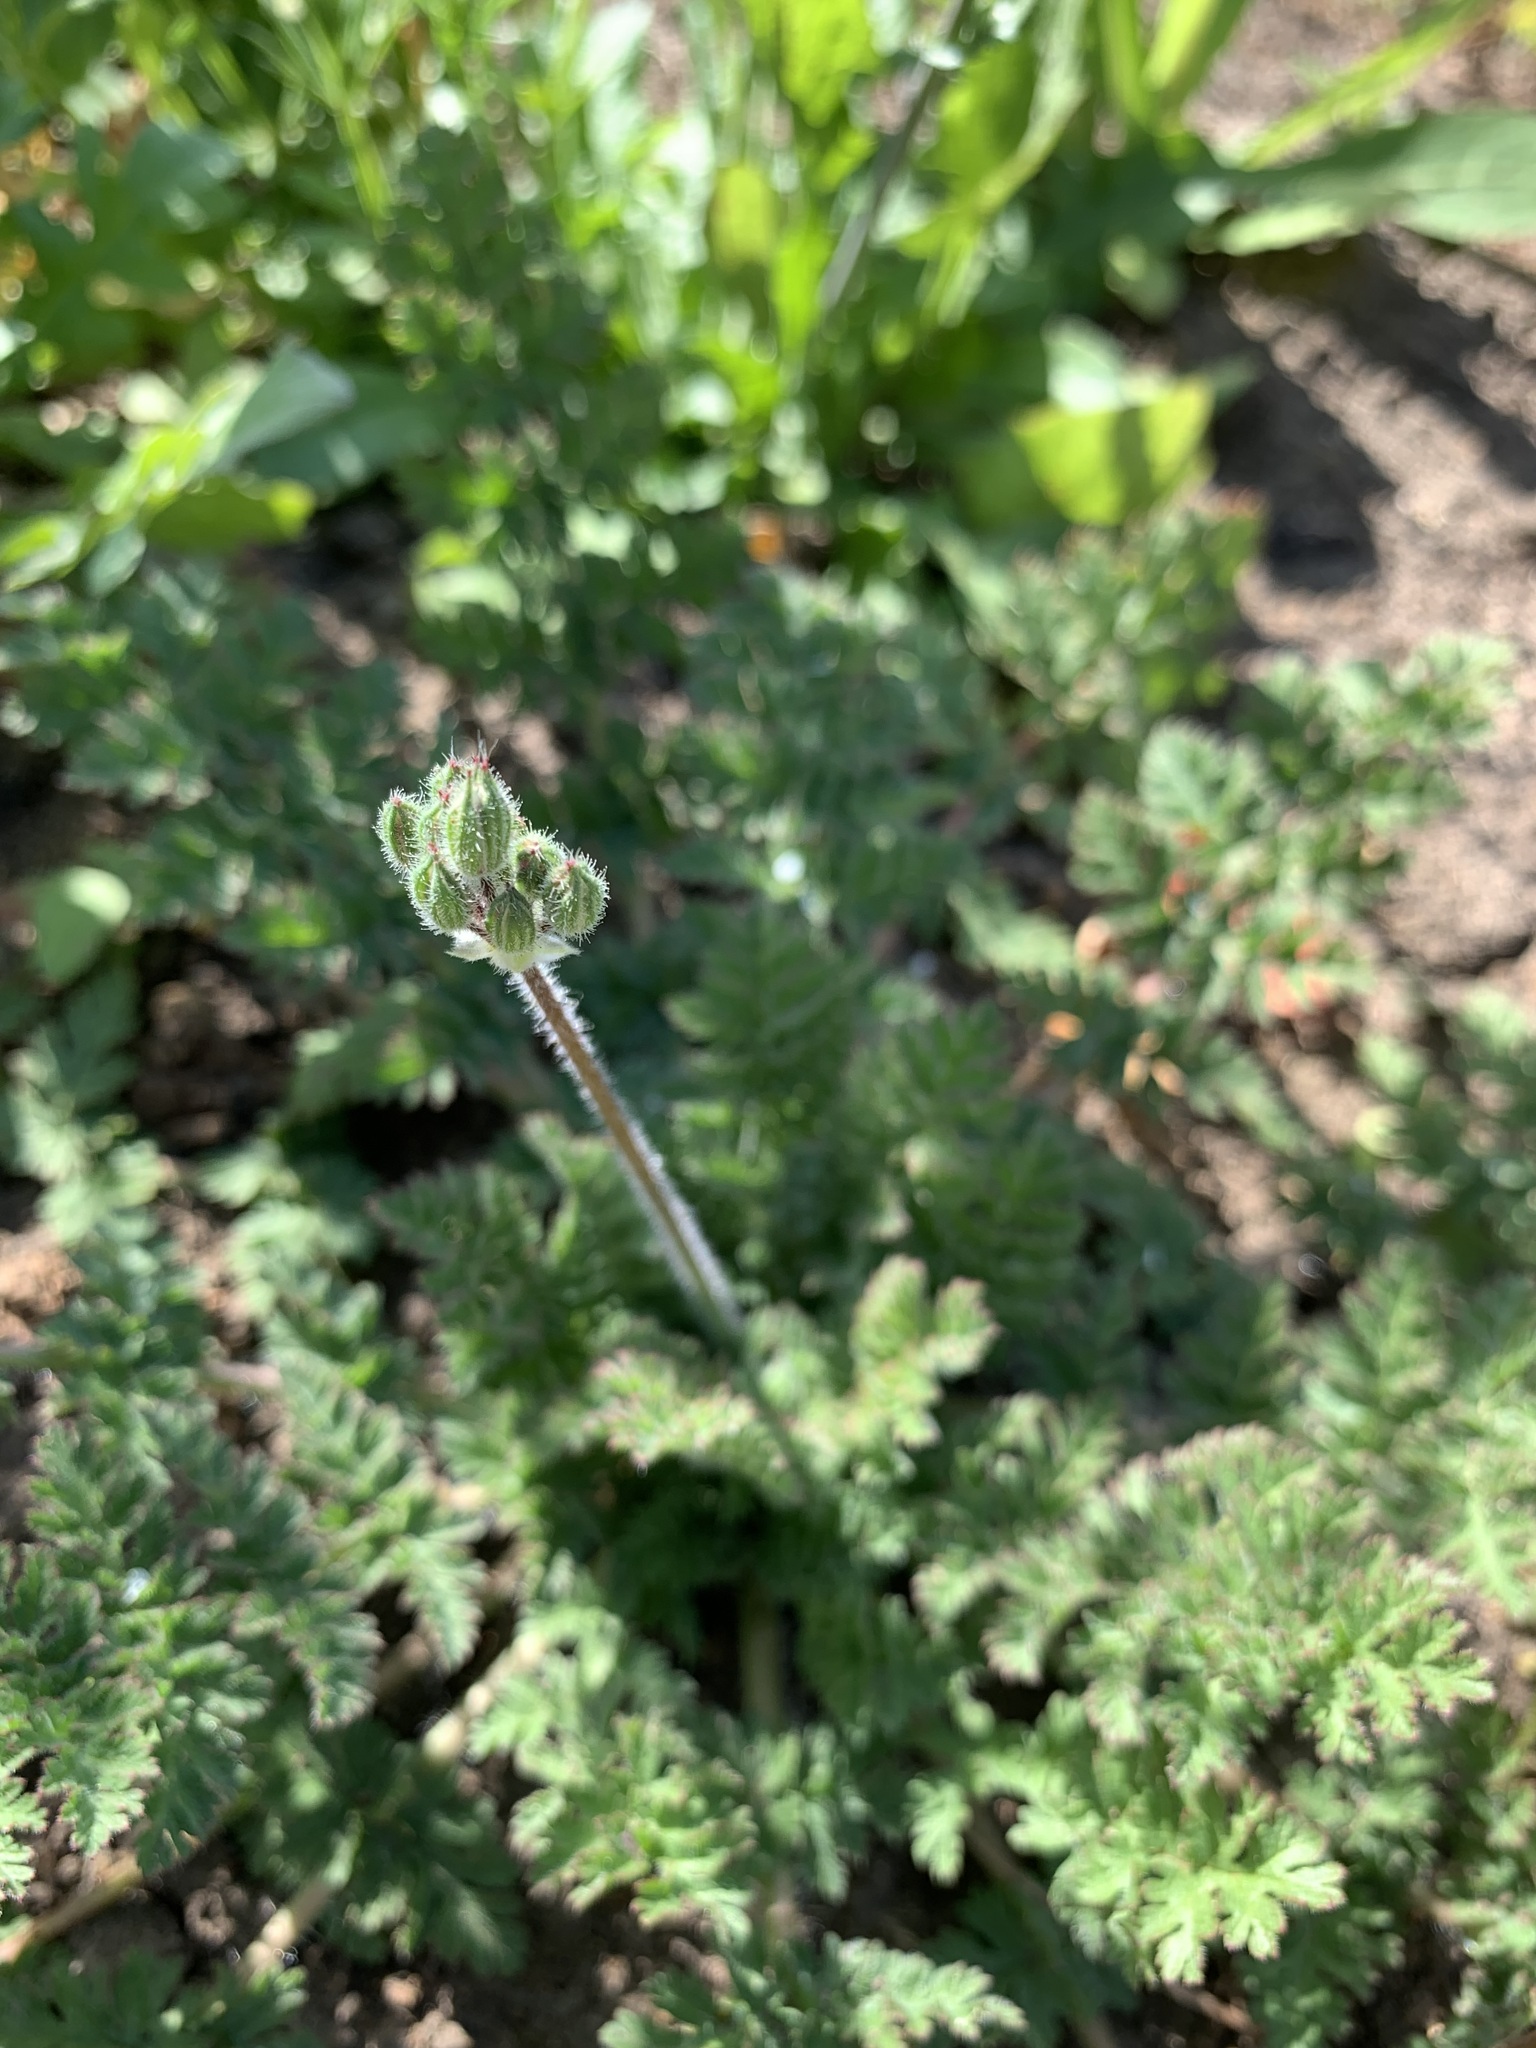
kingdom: Plantae
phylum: Tracheophyta
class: Magnoliopsida
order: Geraniales
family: Geraniaceae
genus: Erodium
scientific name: Erodium cicutarium
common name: Common stork's-bill
